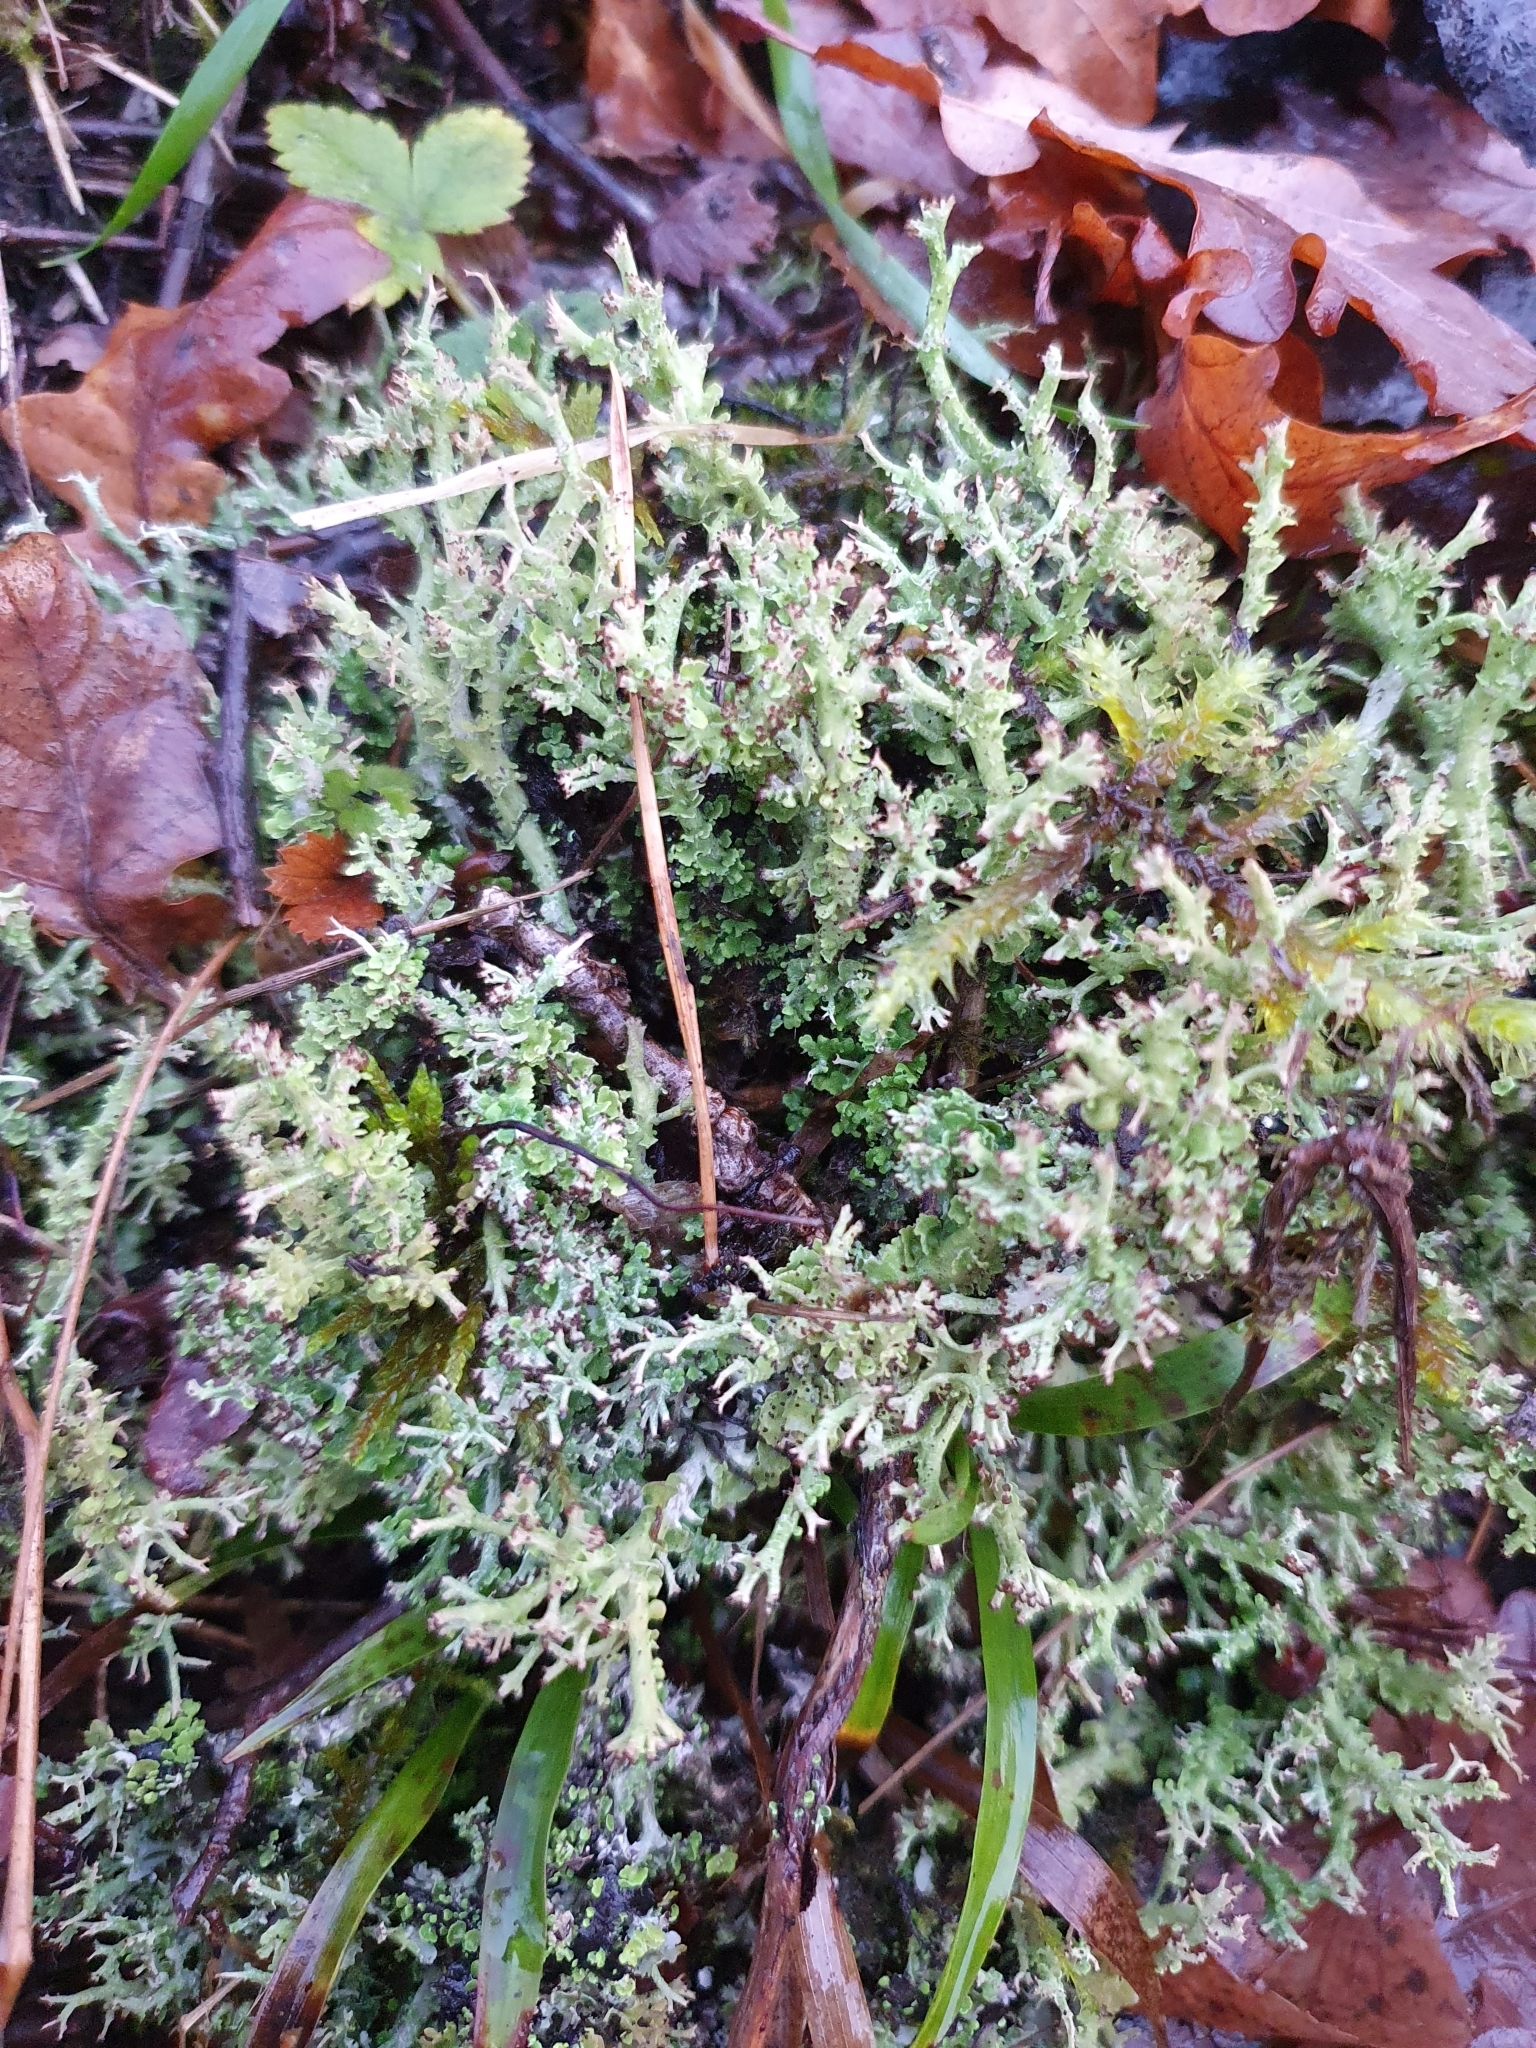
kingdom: Fungi
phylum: Ascomycota
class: Lecanoromycetes
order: Lecanorales
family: Cladoniaceae
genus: Cladonia
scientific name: Cladonia furcata
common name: Many-forked cladonia
